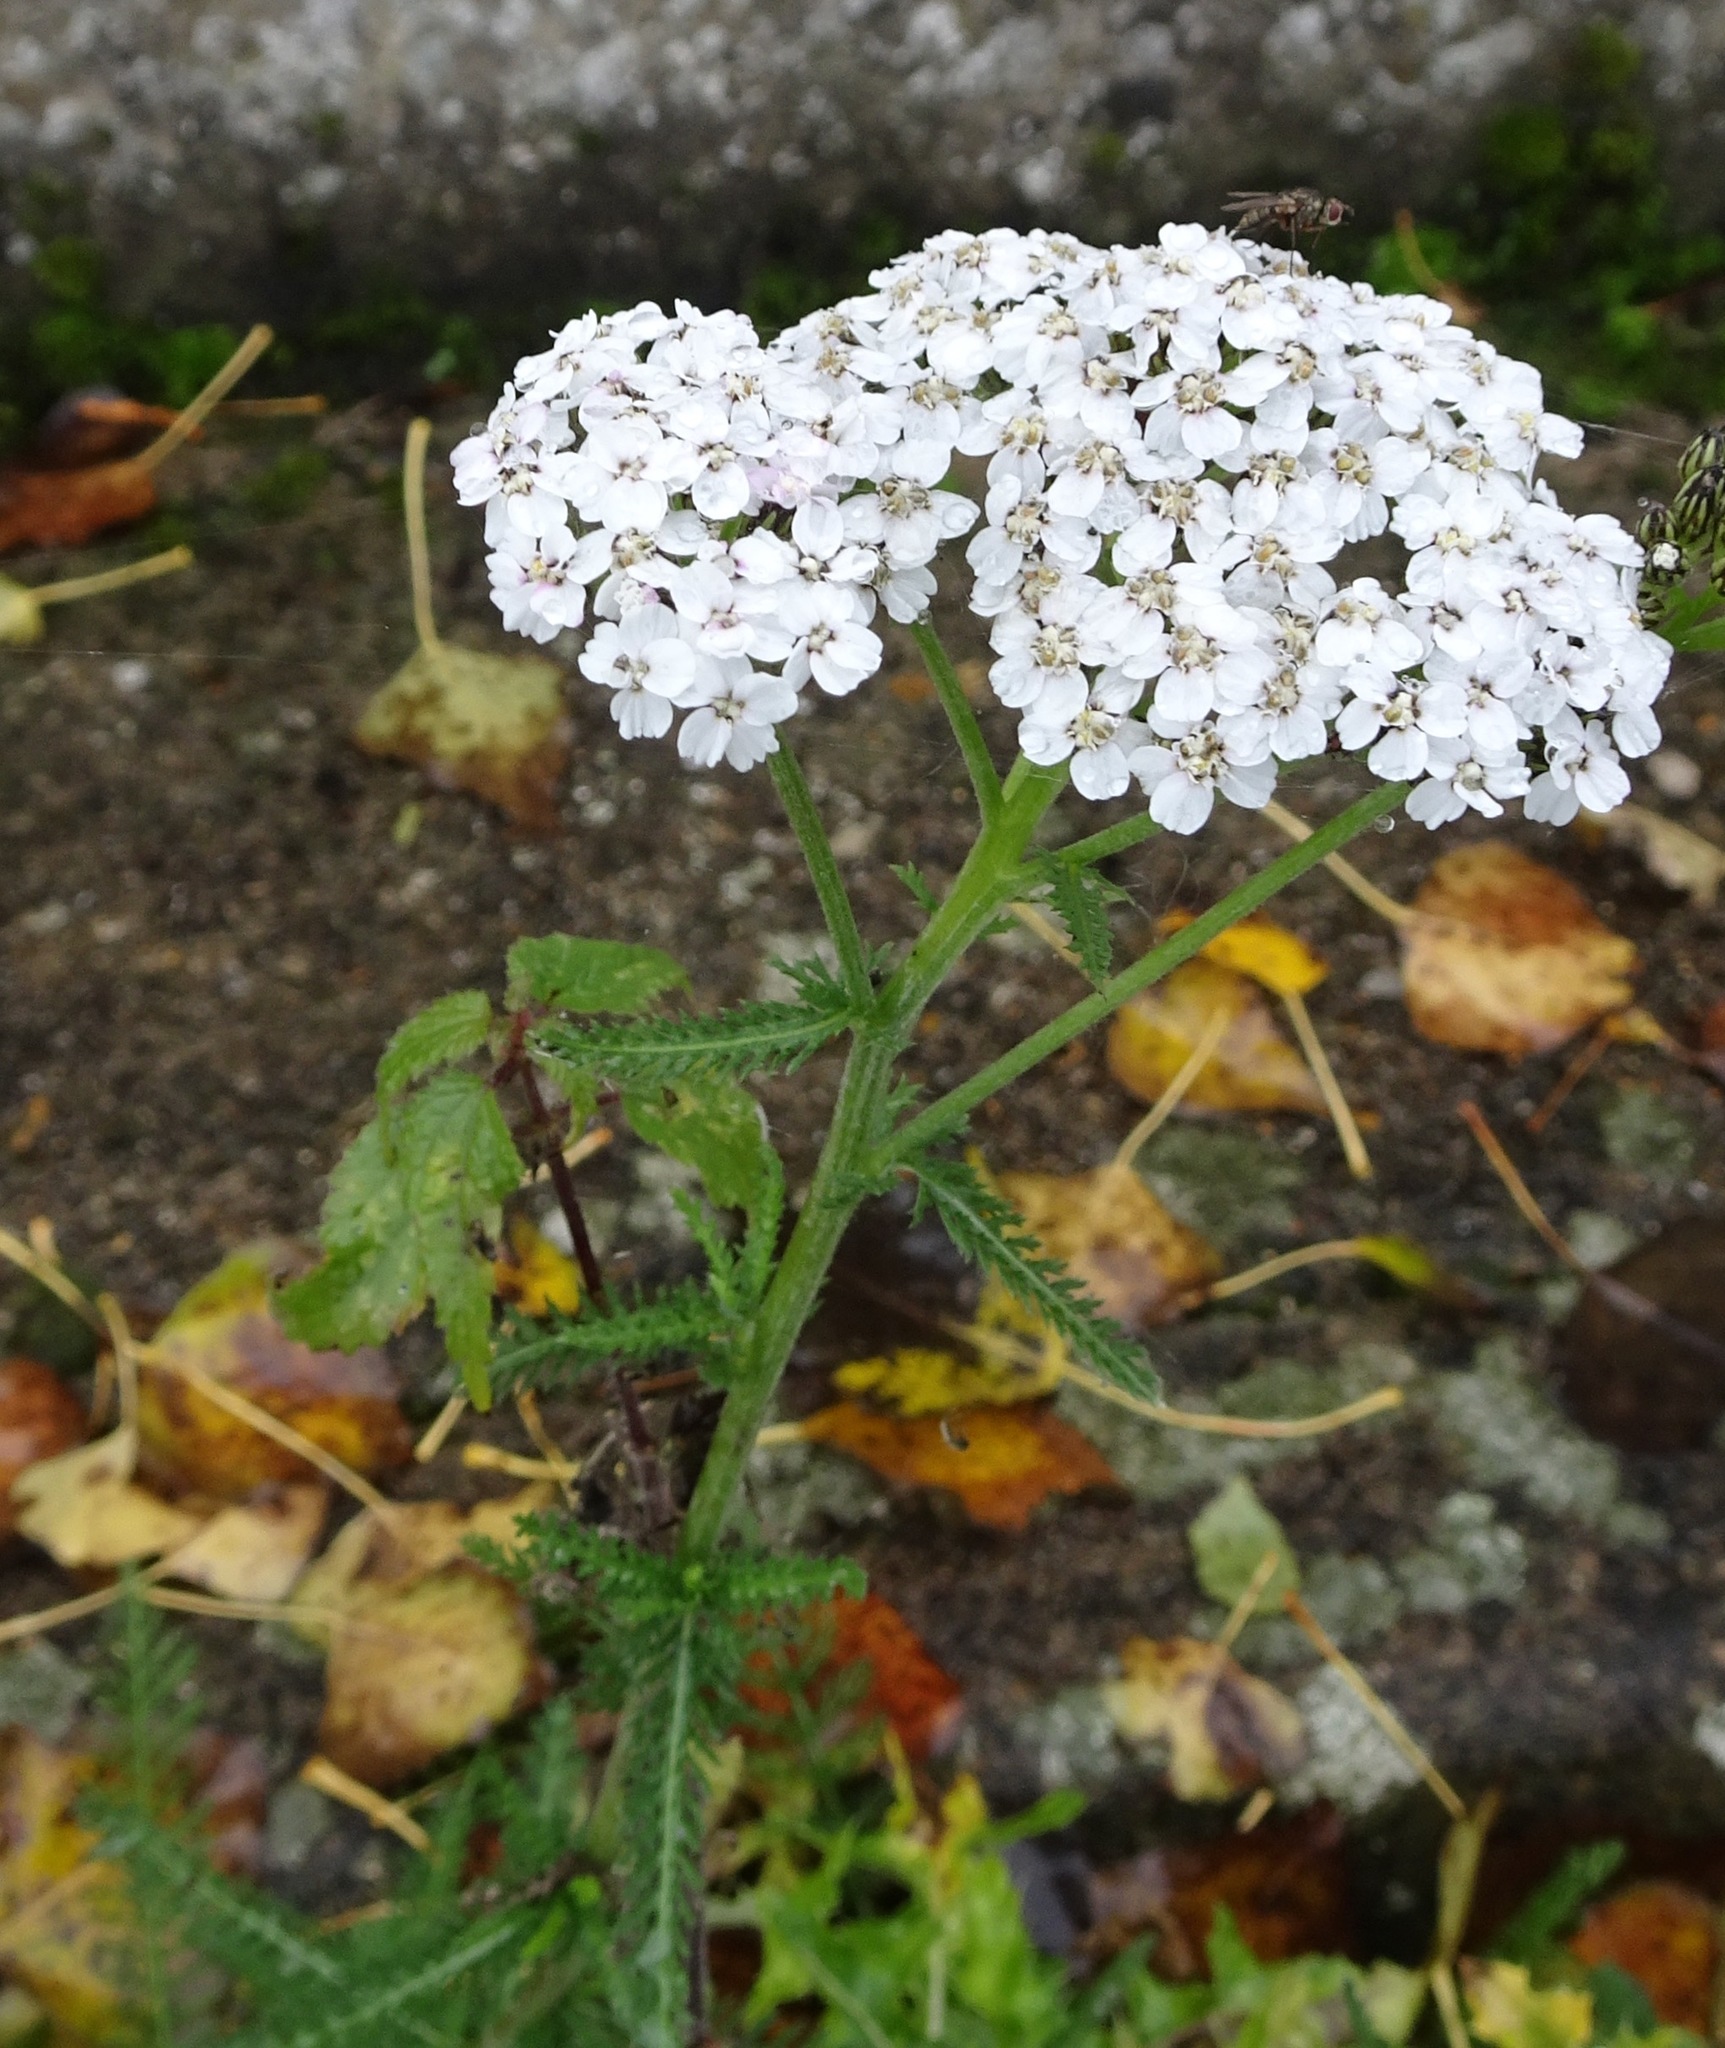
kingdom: Plantae
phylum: Tracheophyta
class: Magnoliopsida
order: Asterales
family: Asteraceae
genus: Achillea
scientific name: Achillea millefolium
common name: Yarrow
